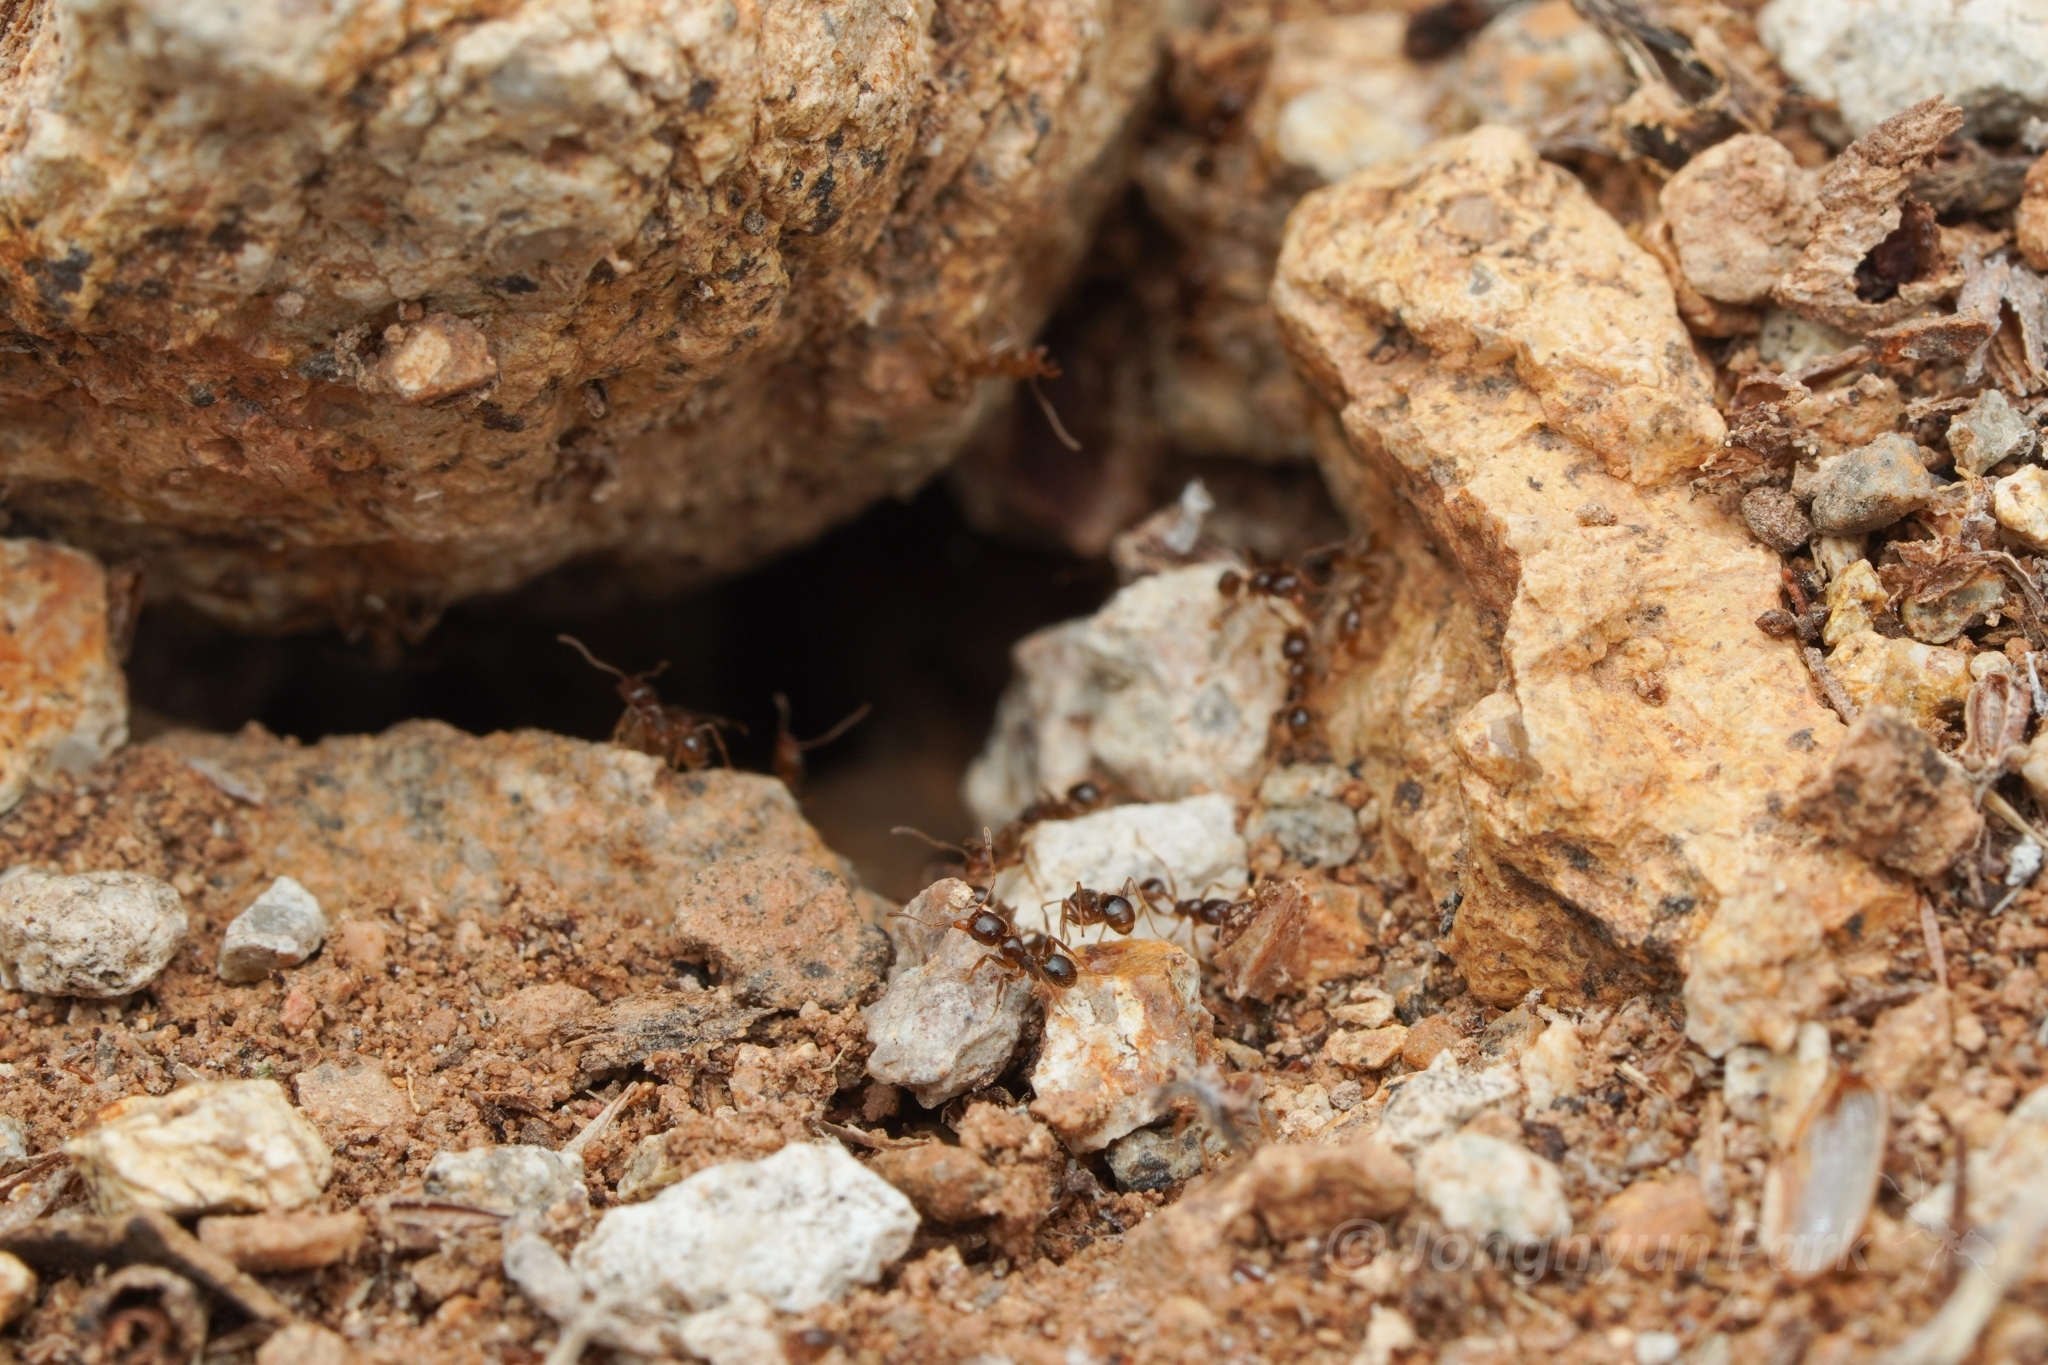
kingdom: Animalia
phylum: Arthropoda
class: Insecta
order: Hymenoptera
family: Formicidae
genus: Pheidole
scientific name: Pheidole tepicana
